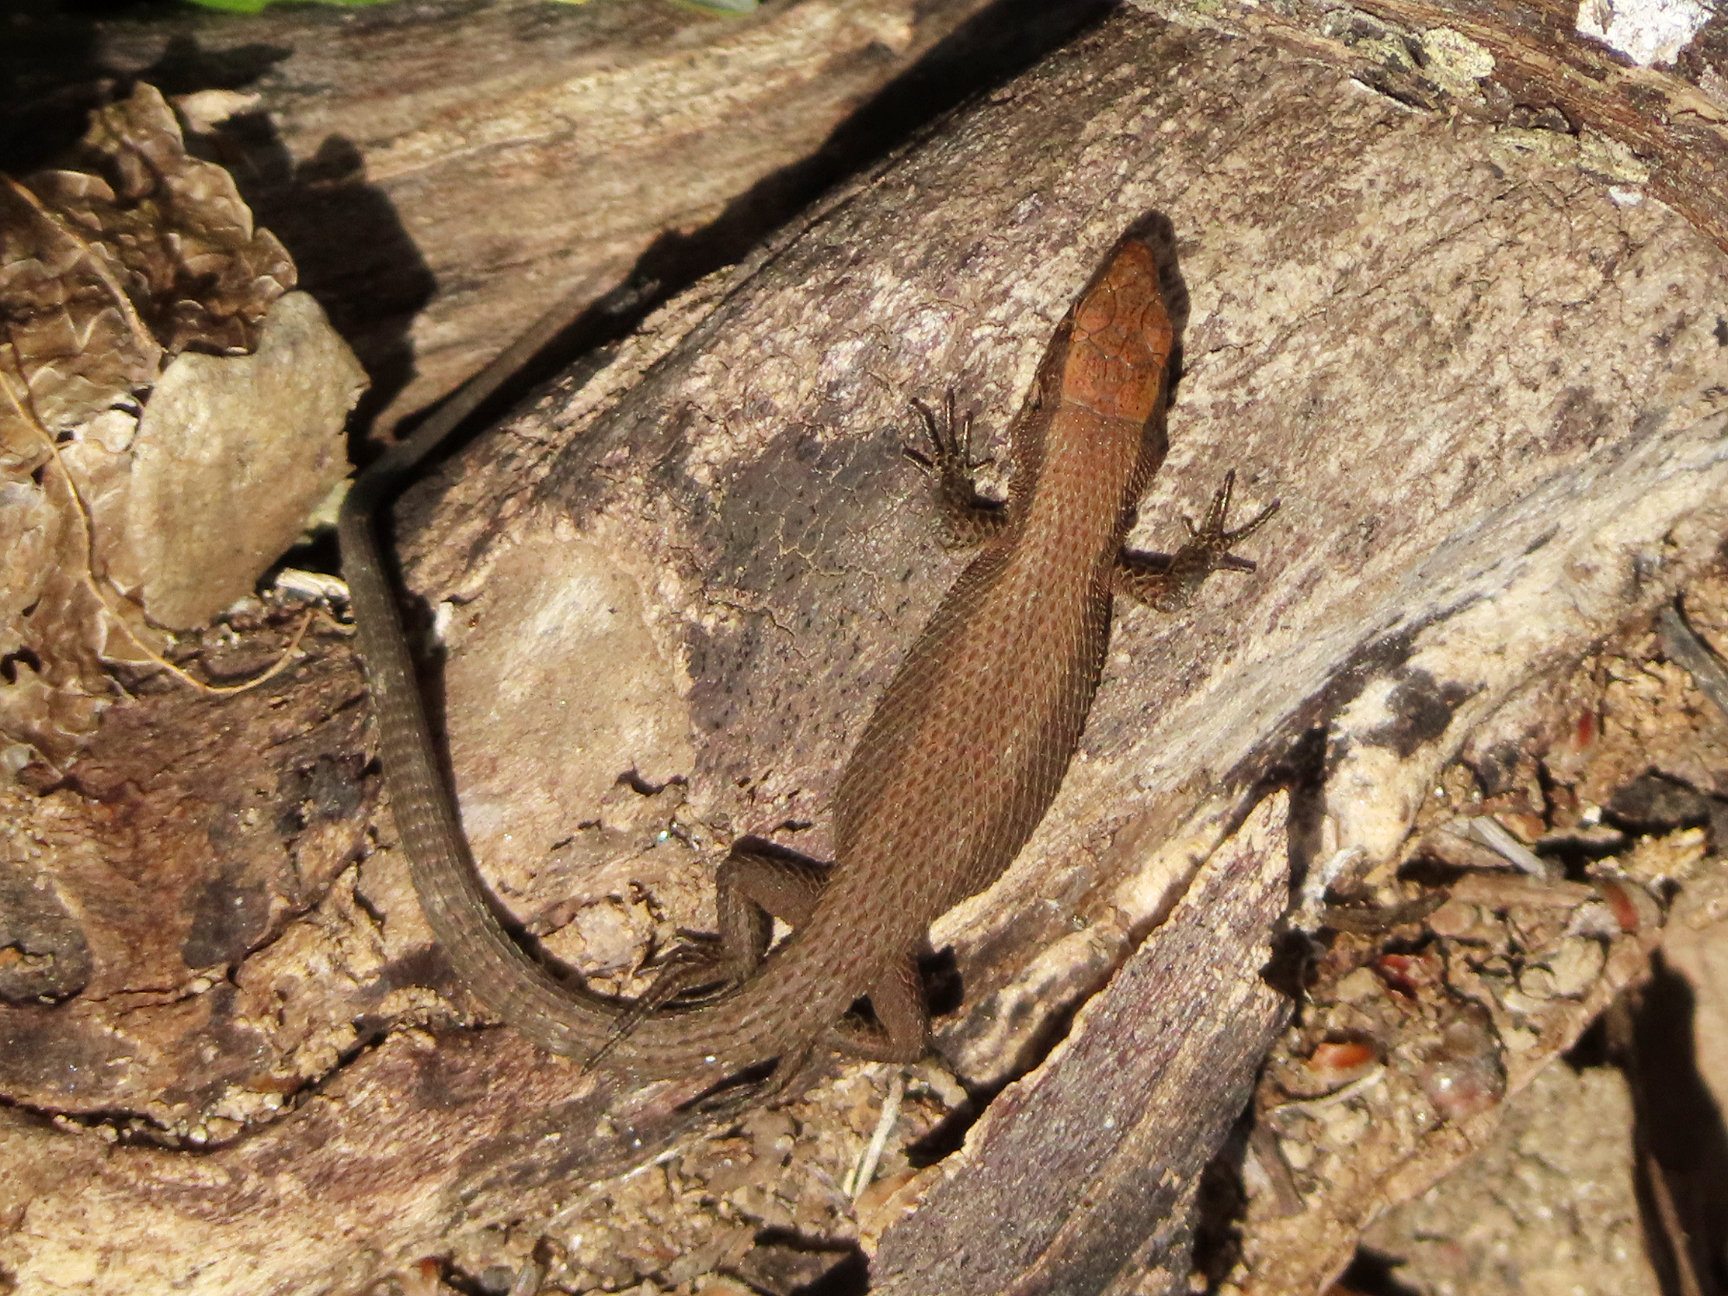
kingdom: Animalia
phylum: Chordata
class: Squamata
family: Lacertidae
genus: Algyroides
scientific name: Algyroides moreoticus
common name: Greek algyroides
